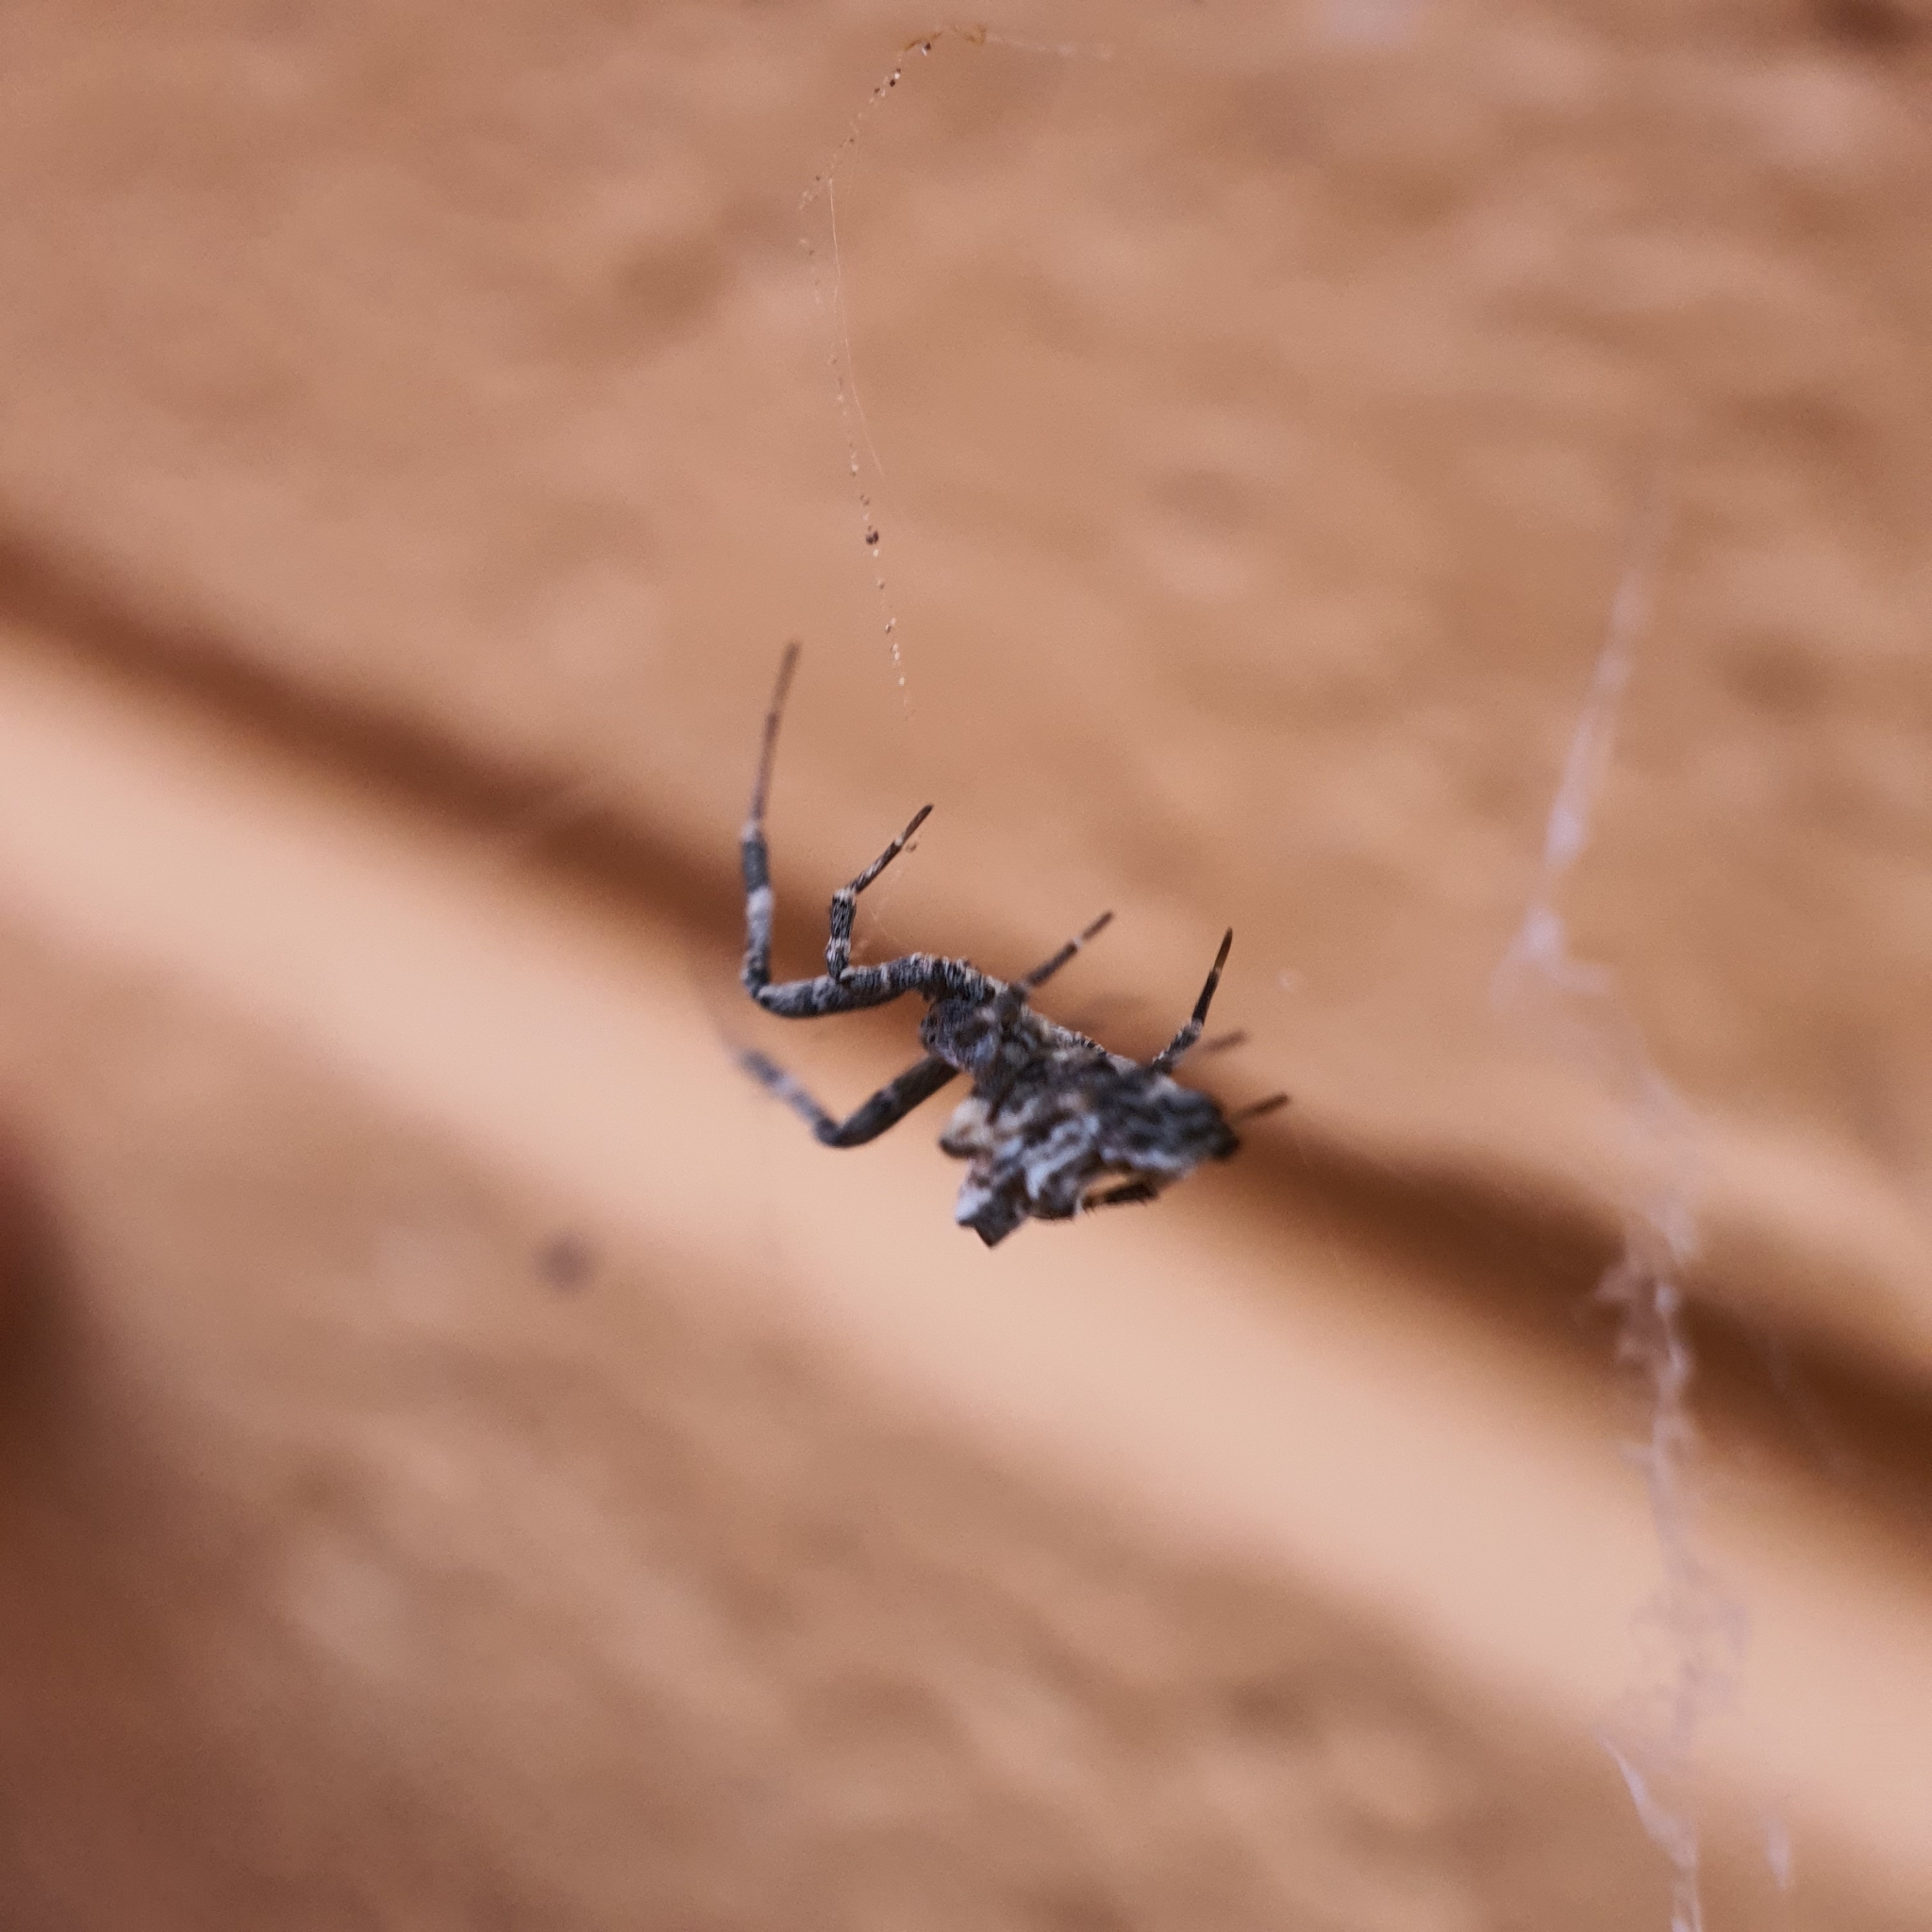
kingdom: Animalia
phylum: Arthropoda
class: Arachnida
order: Araneae
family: Uloboridae
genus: Philoponella
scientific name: Philoponella congregabilis
